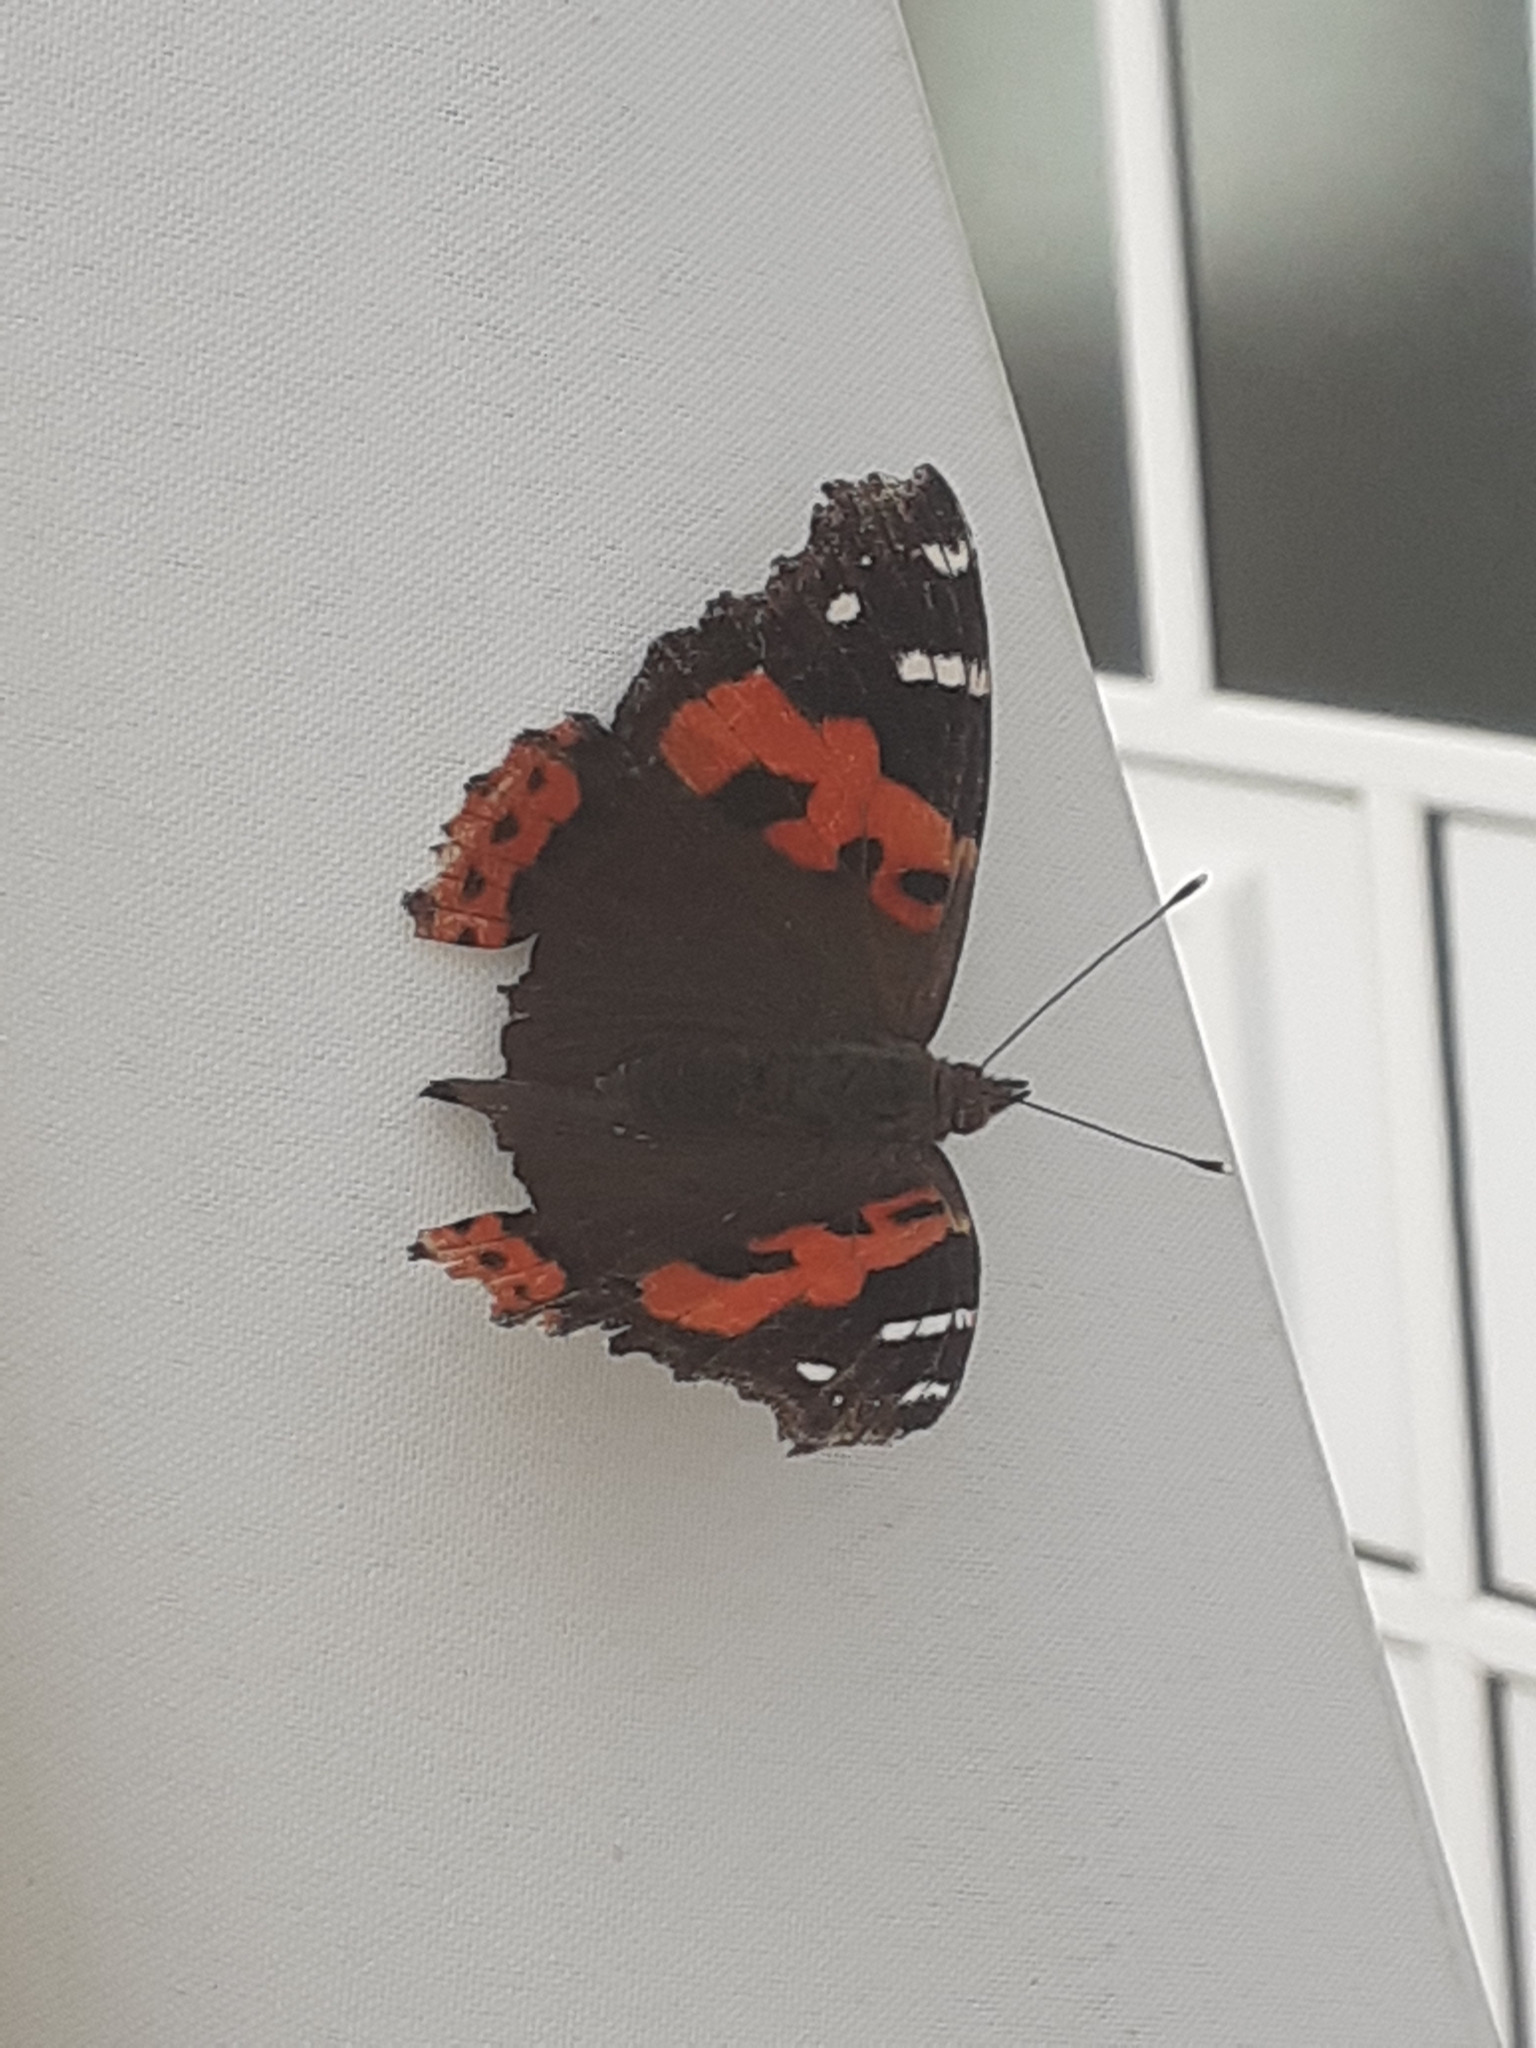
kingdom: Animalia
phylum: Arthropoda
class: Insecta
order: Lepidoptera
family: Nymphalidae
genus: Vanessa
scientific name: Vanessa vulcania
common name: Canary red admiral
